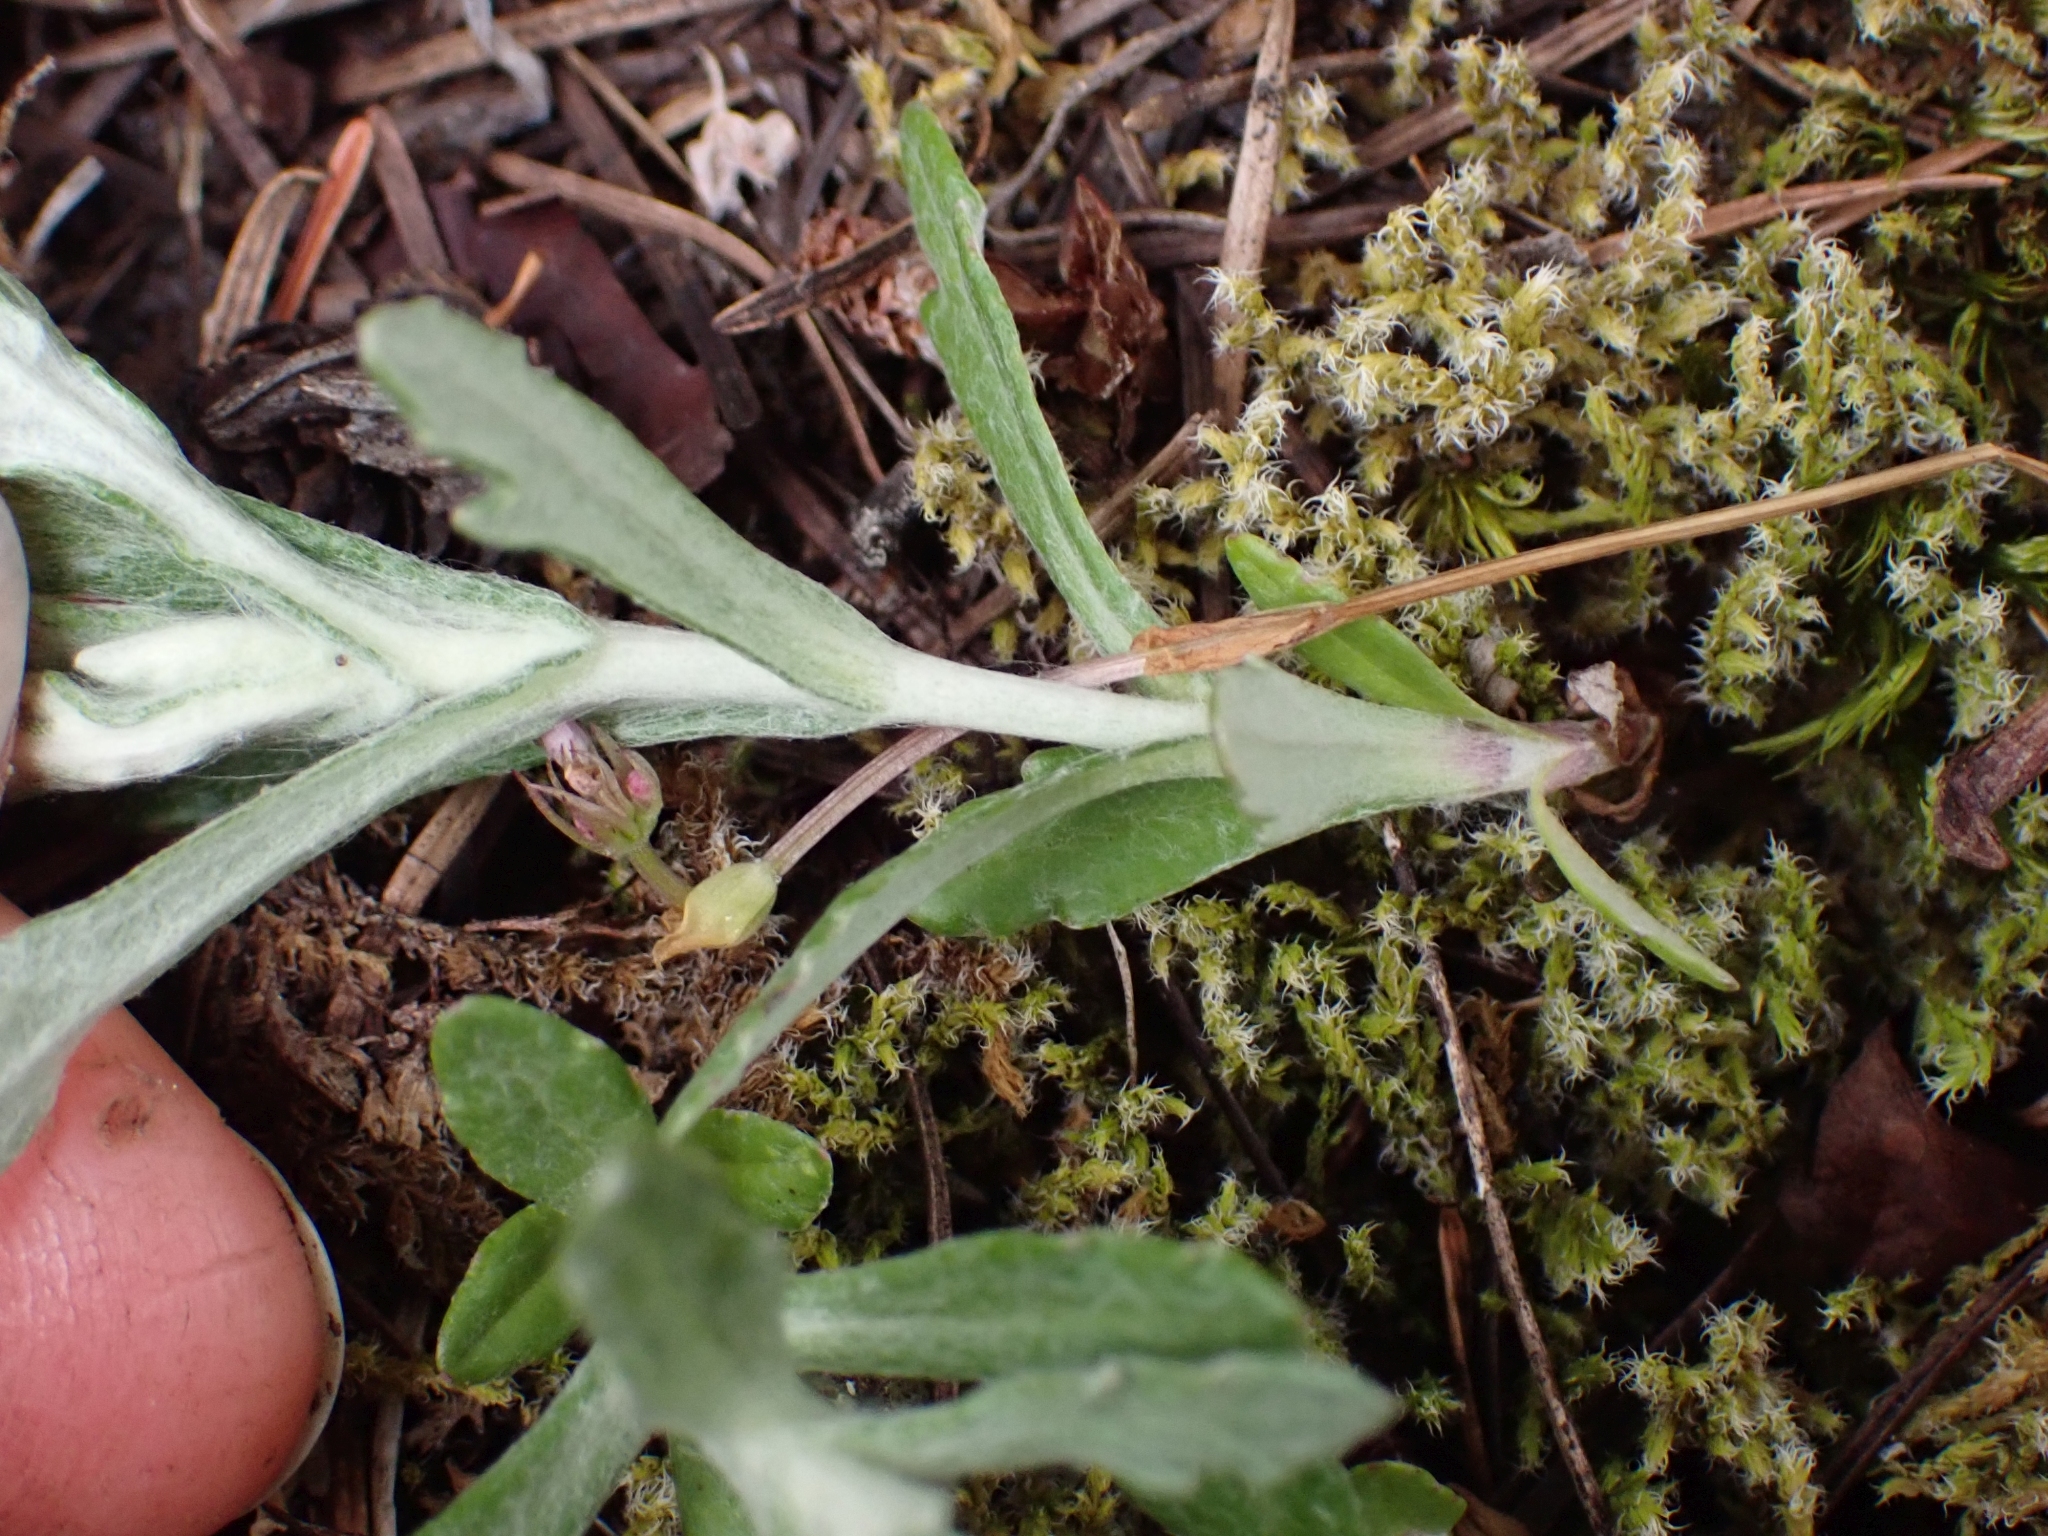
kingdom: Plantae
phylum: Tracheophyta
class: Magnoliopsida
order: Asterales
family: Asteraceae
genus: Eriophyllum
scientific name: Eriophyllum lanatum
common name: Common woolly-sunflower
